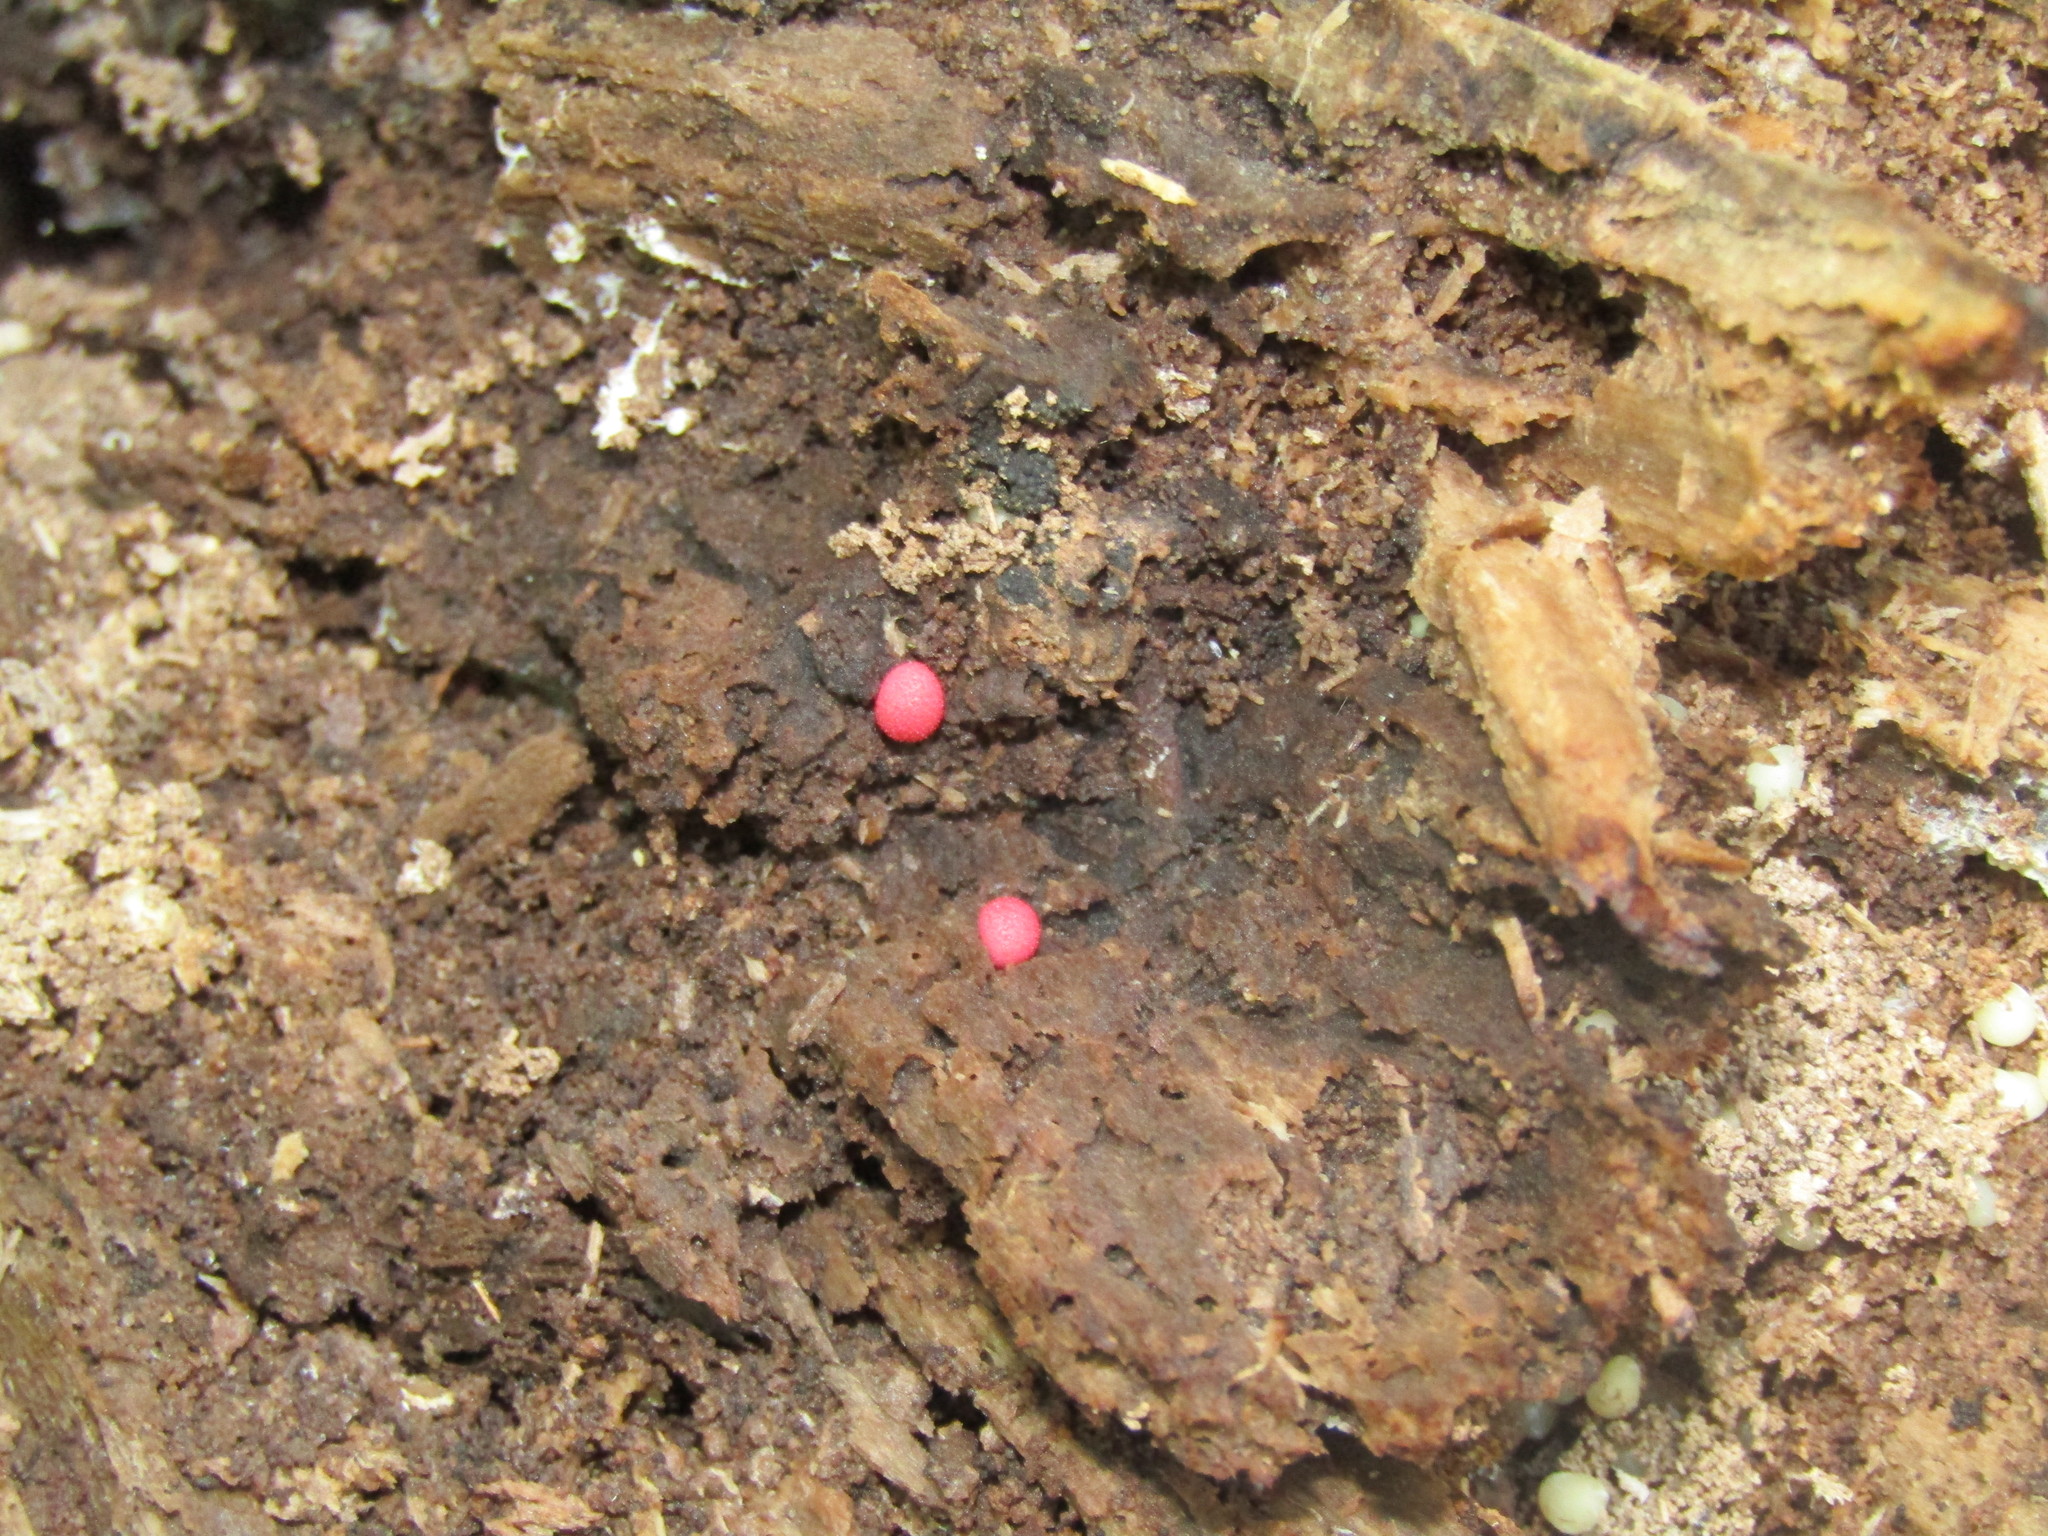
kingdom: Protozoa
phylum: Mycetozoa
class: Myxomycetes
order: Cribrariales
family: Tubiferaceae
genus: Lycogala
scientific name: Lycogala epidendrum
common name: Wolf's milk
